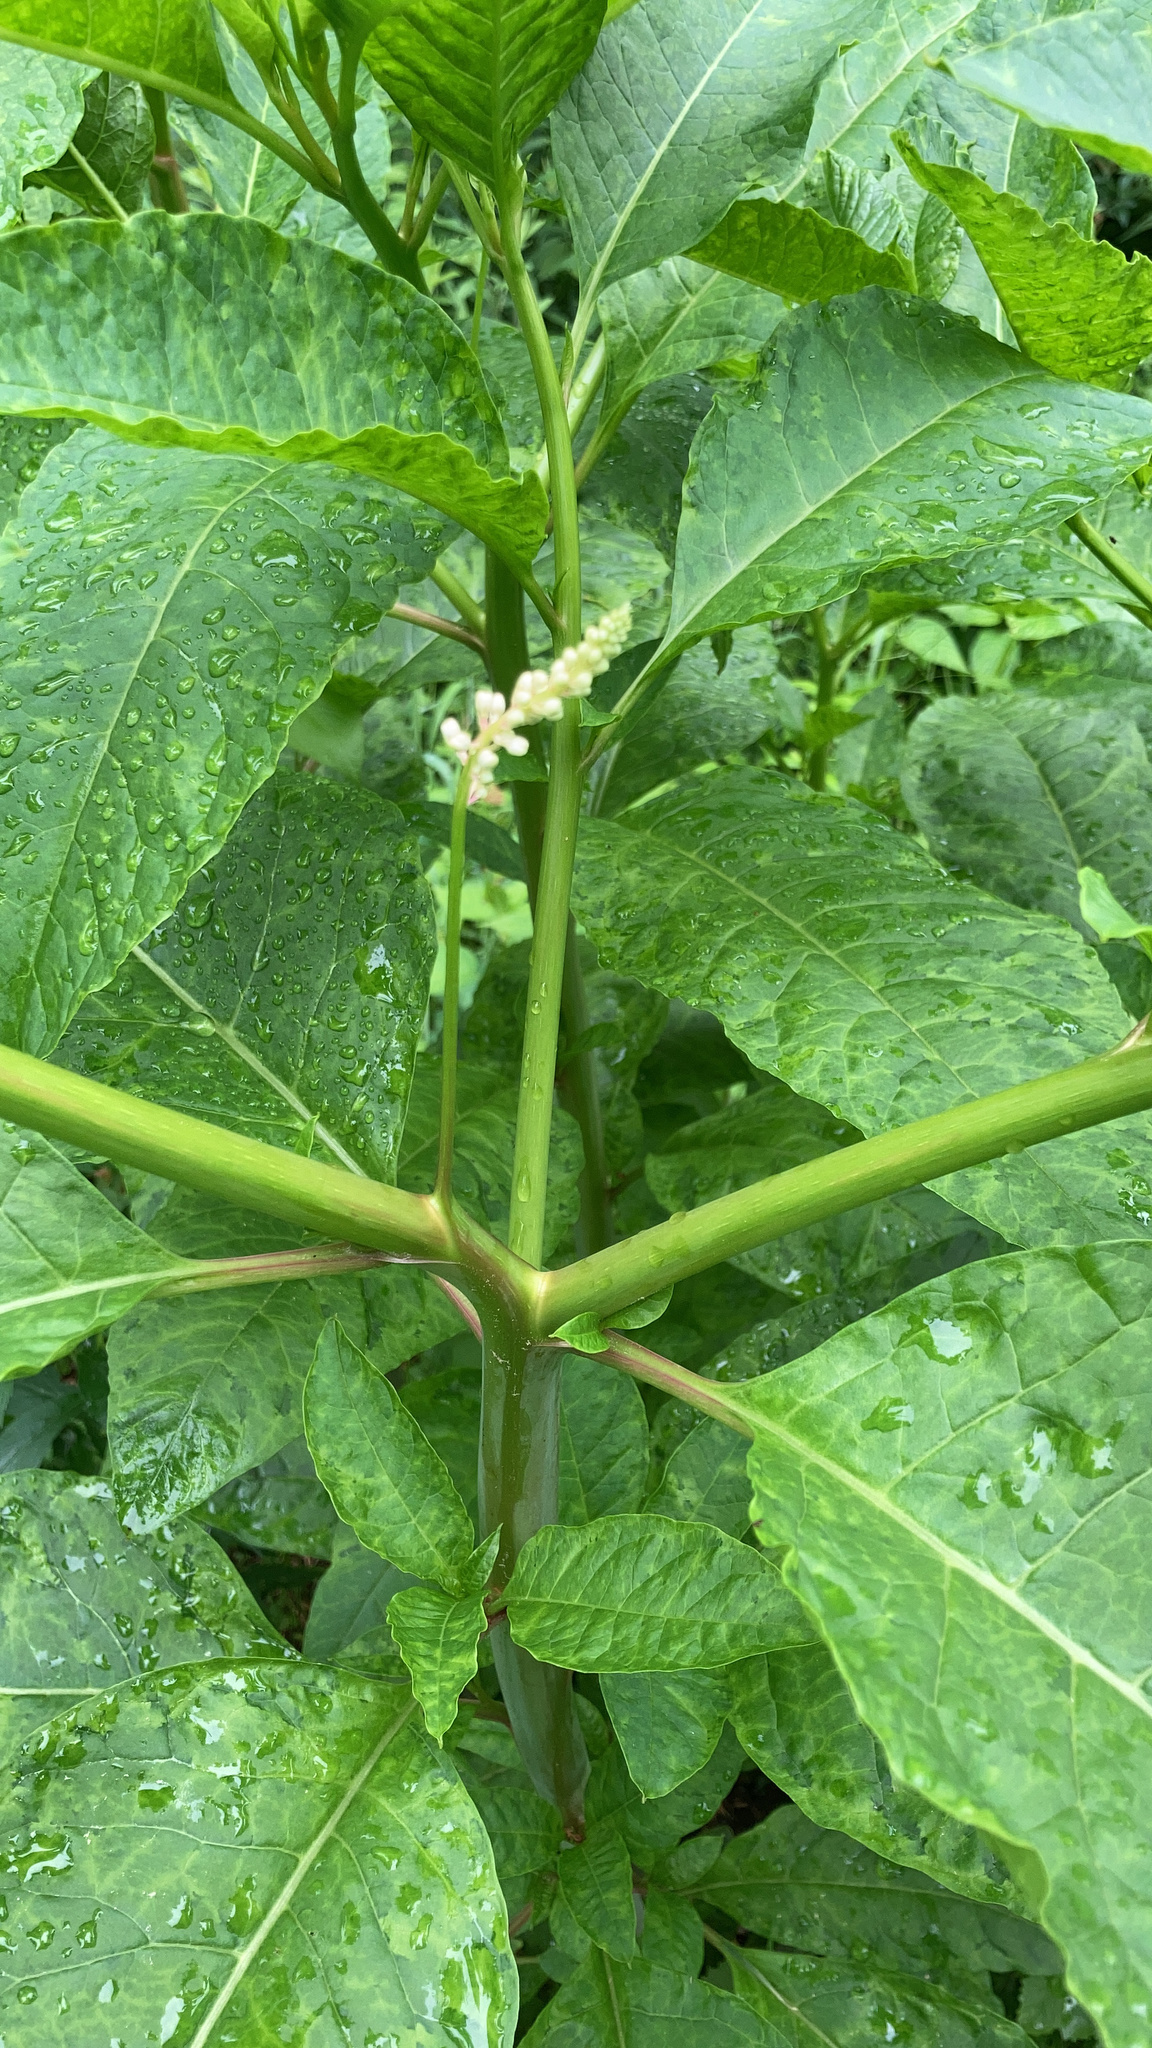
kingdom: Plantae
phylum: Tracheophyta
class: Magnoliopsida
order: Caryophyllales
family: Phytolaccaceae
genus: Phytolacca
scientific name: Phytolacca americana
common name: American pokeweed
